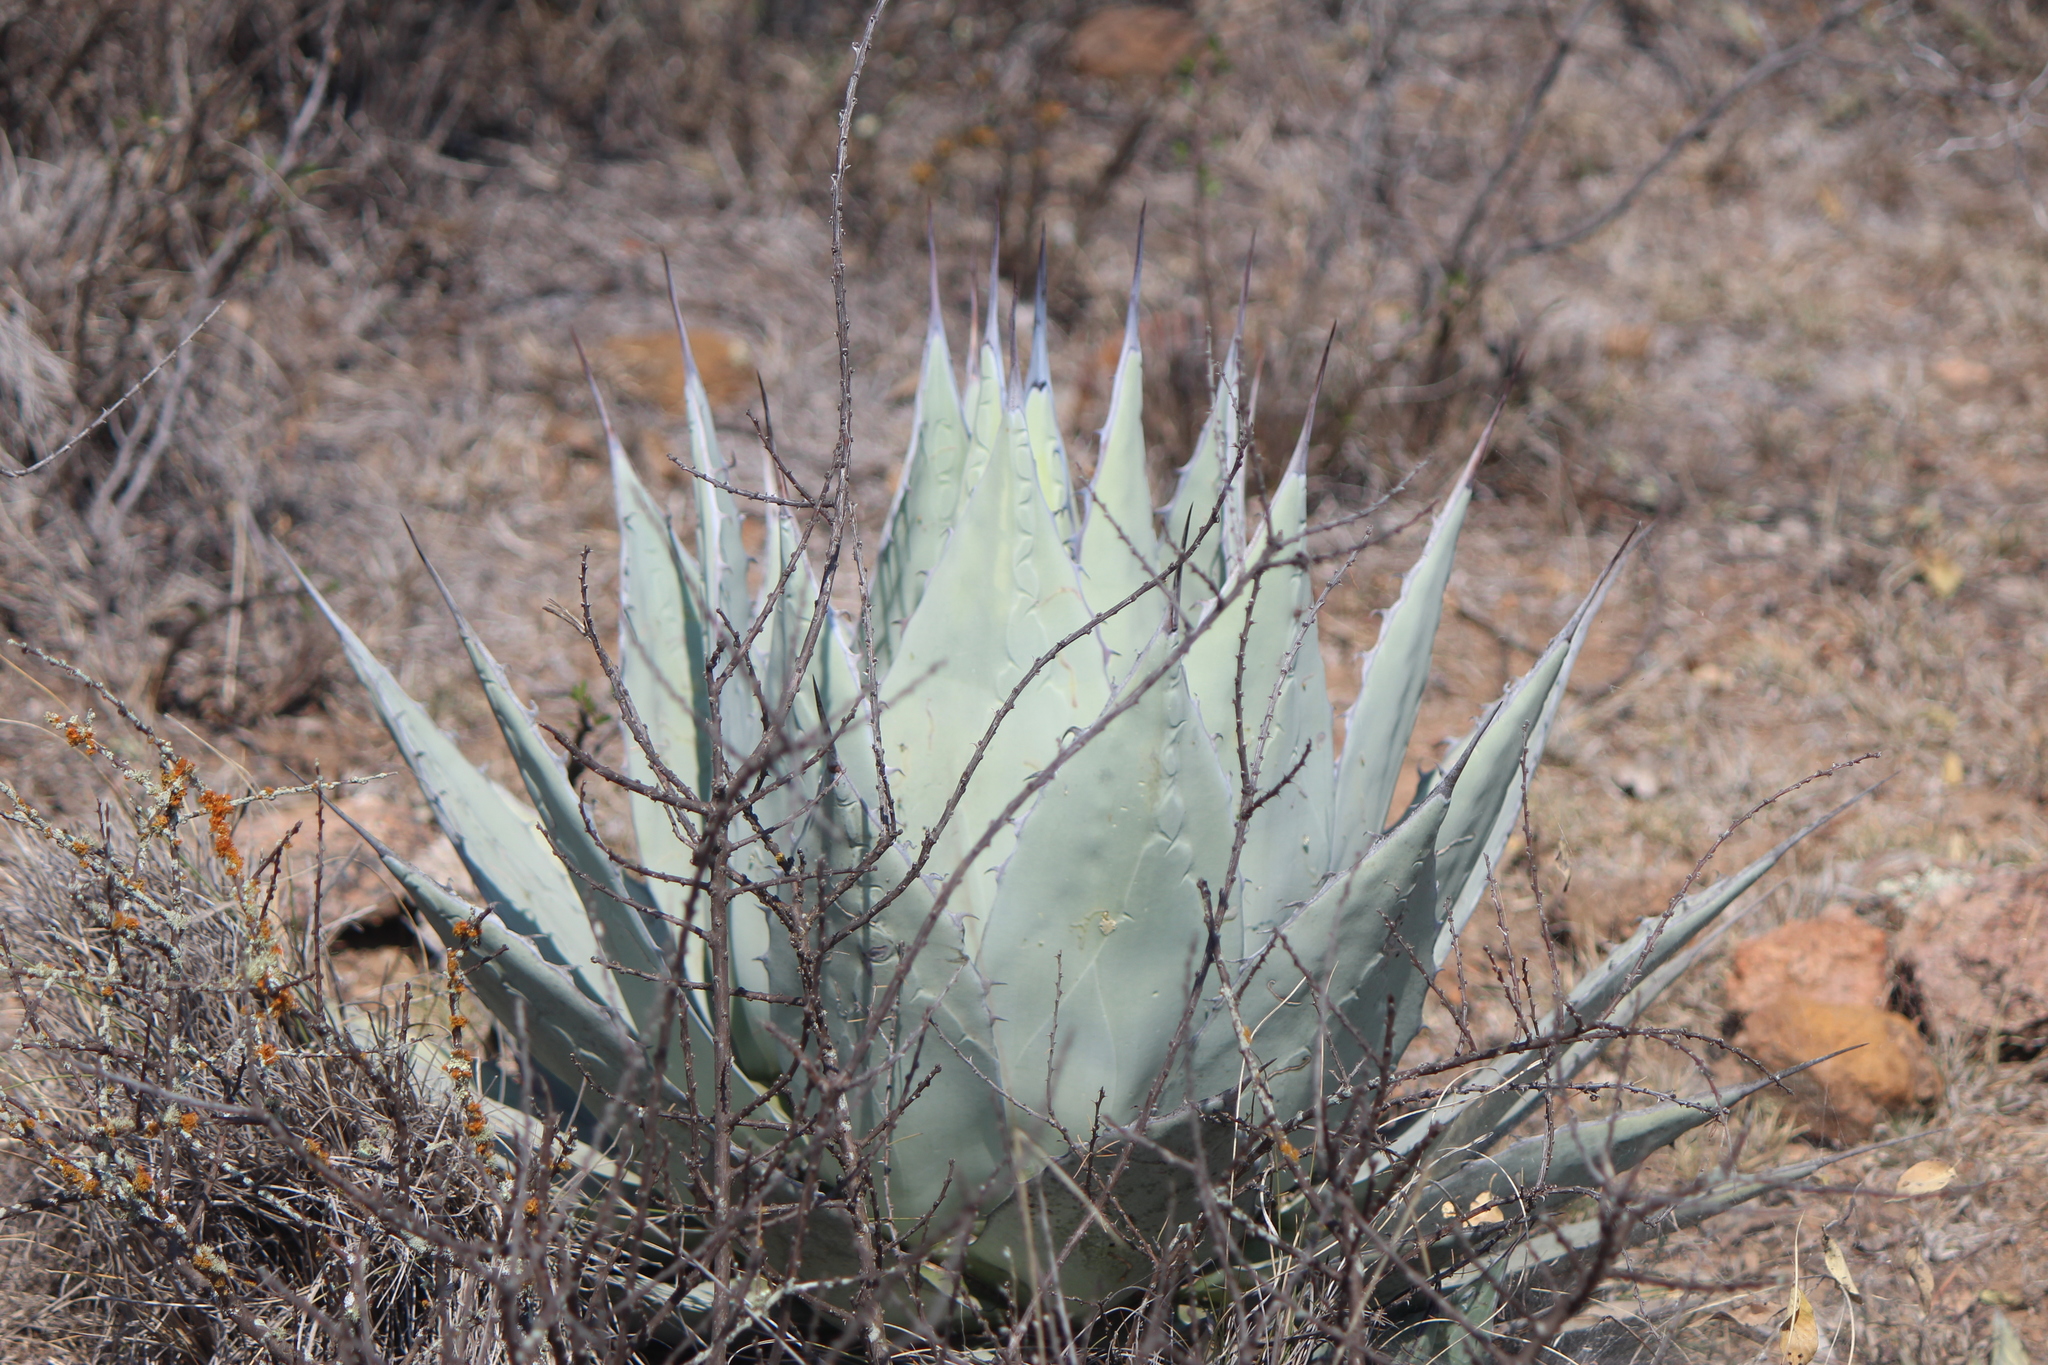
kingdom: Plantae
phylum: Tracheophyta
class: Liliopsida
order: Asparagales
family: Asparagaceae
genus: Agave
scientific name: Agave applanata
